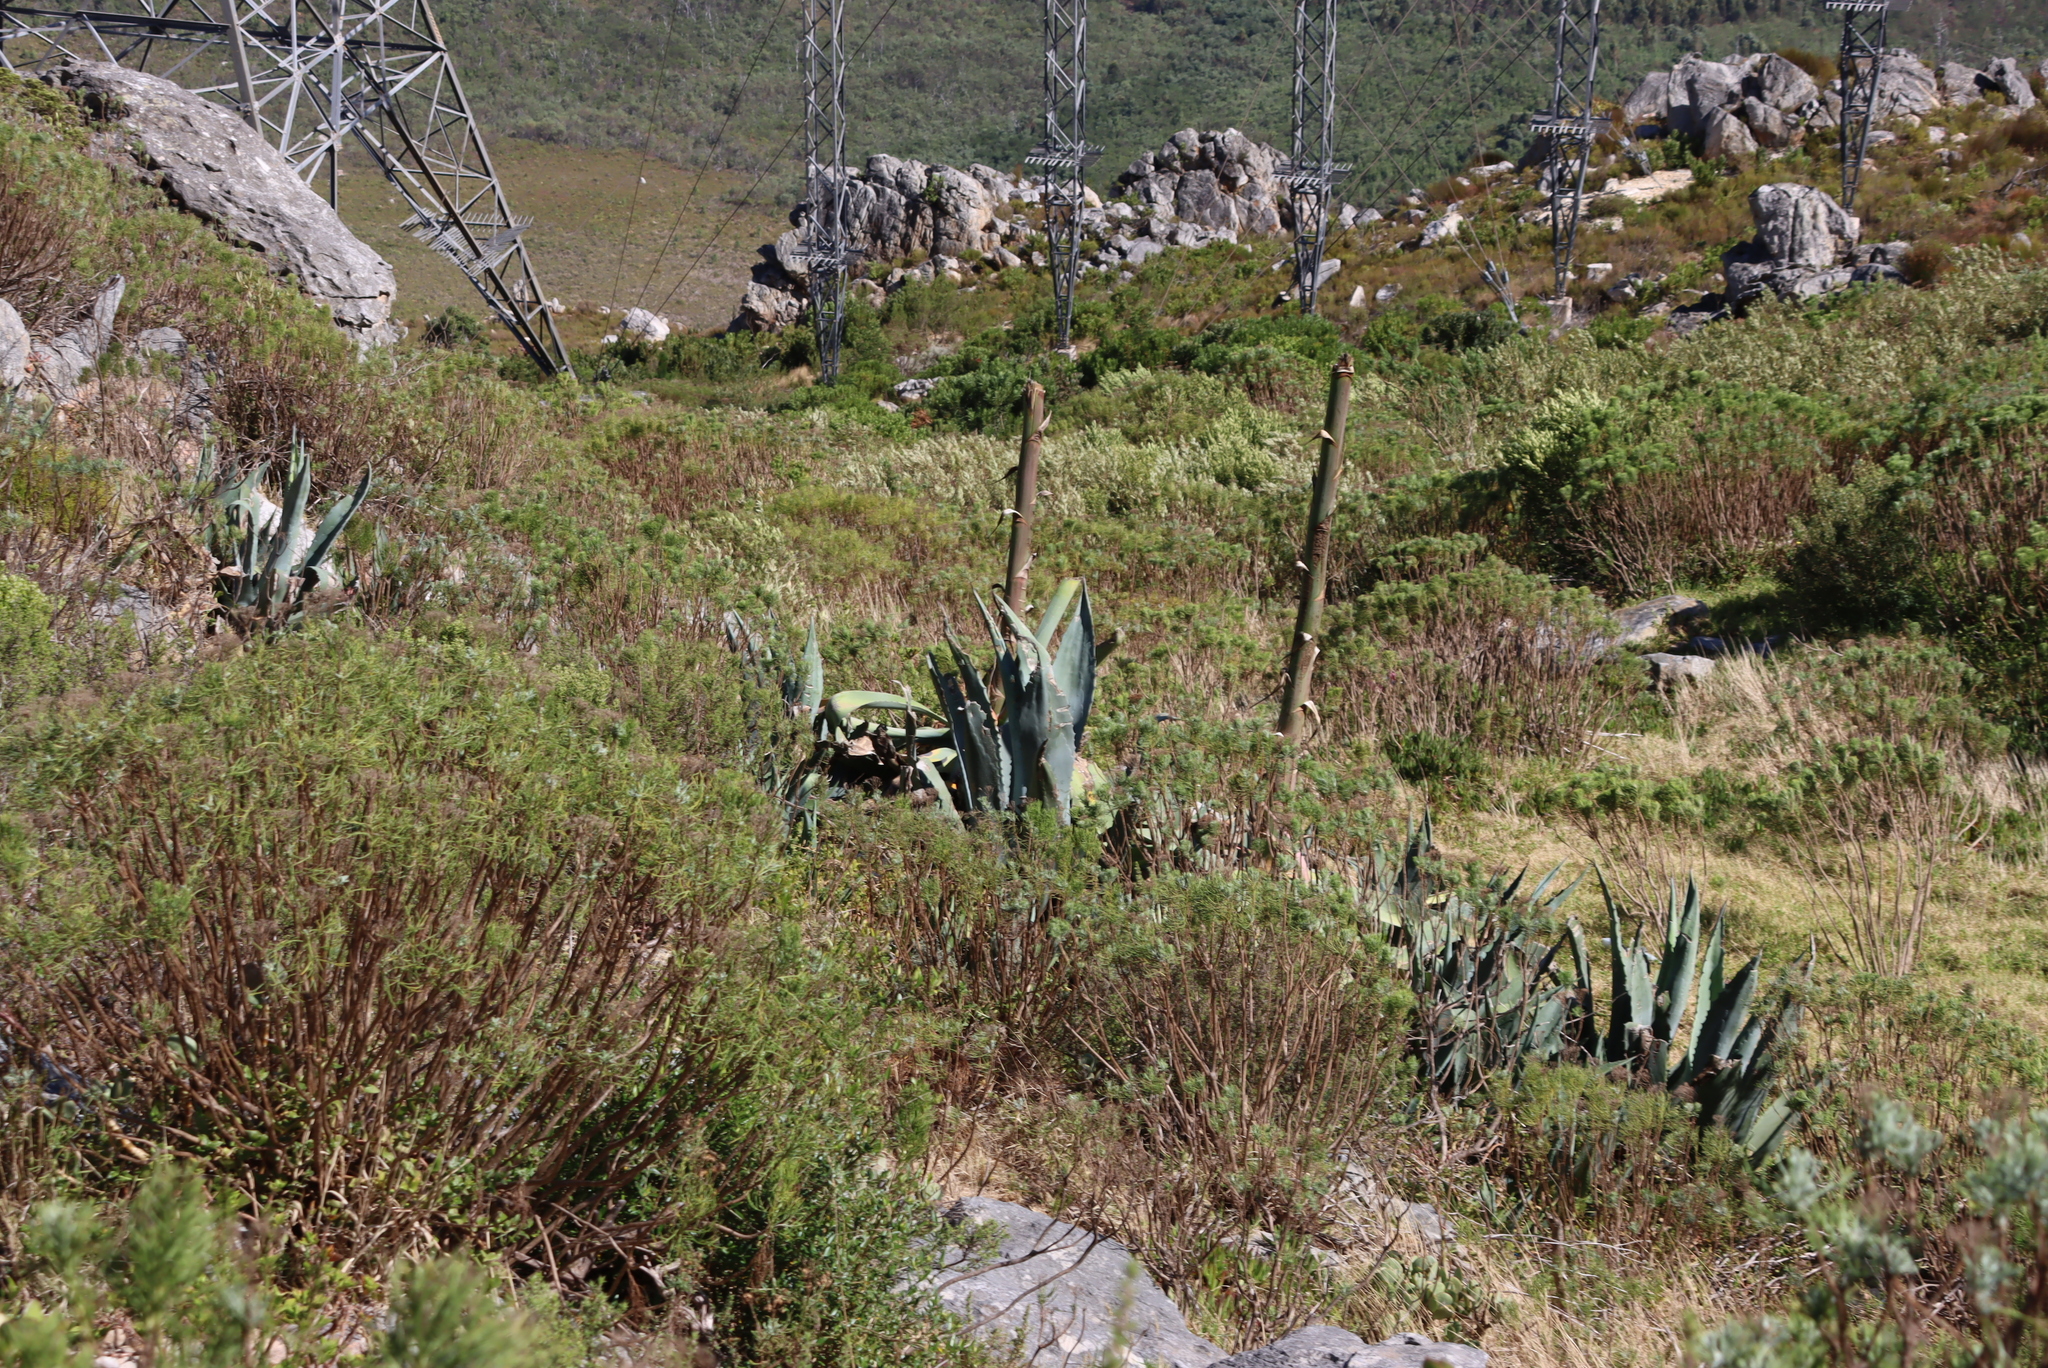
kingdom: Plantae
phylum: Tracheophyta
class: Liliopsida
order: Asparagales
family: Asparagaceae
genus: Agave
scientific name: Agave americana
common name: Centuryplant
